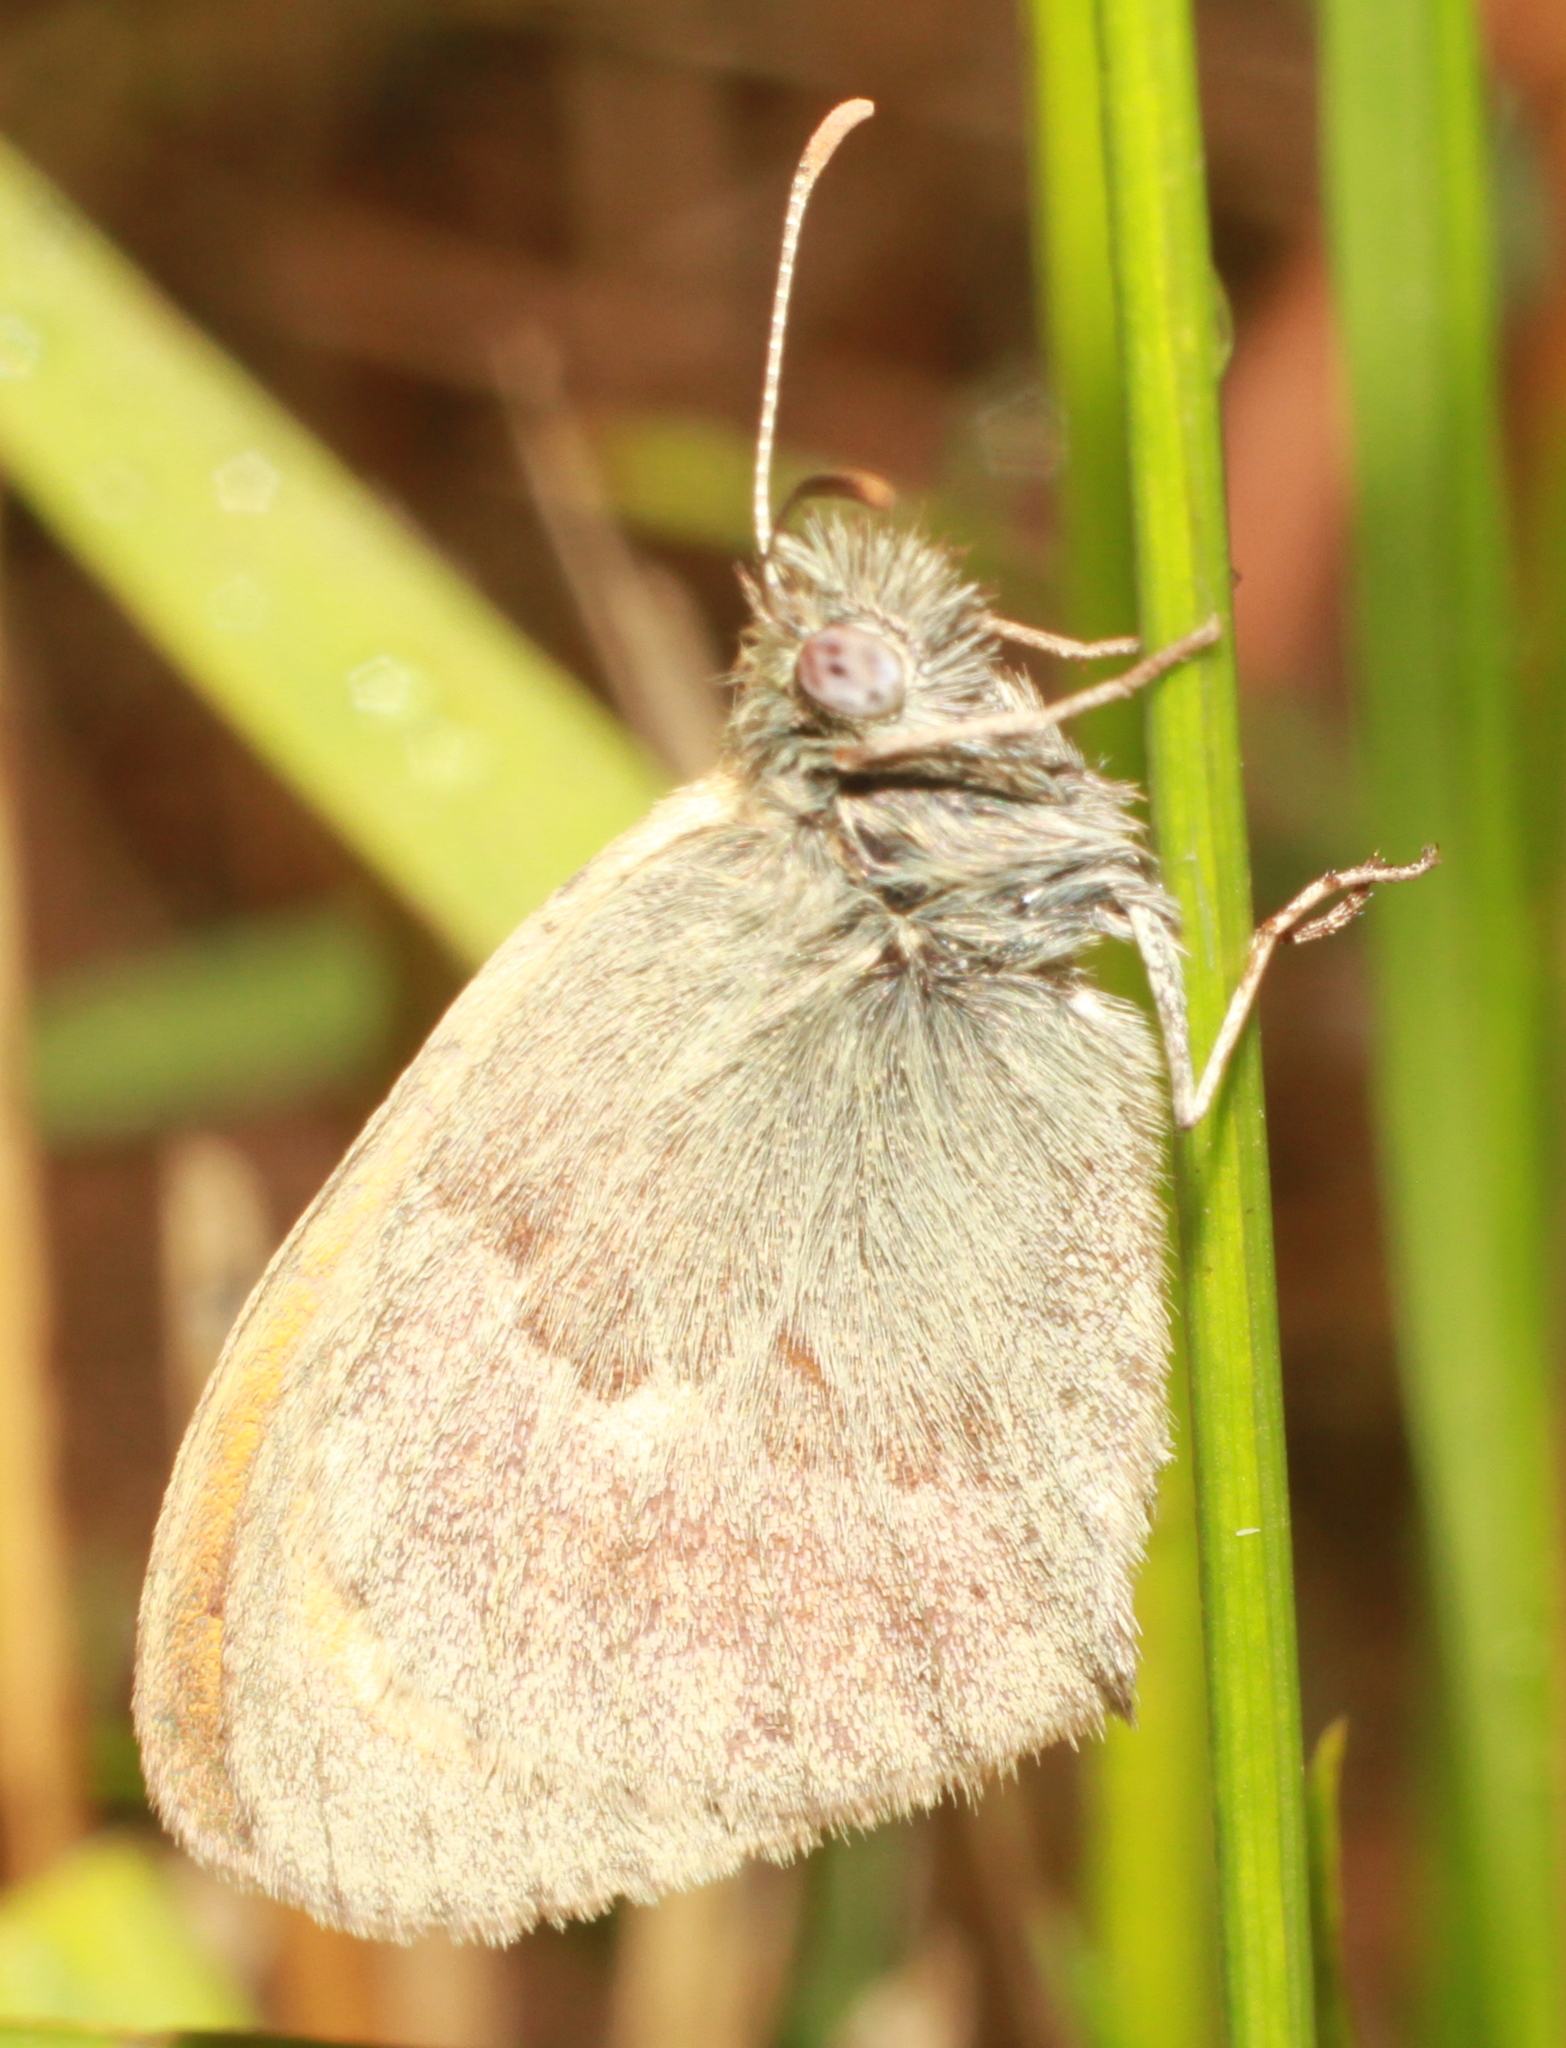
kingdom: Animalia
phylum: Arthropoda
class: Insecta
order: Lepidoptera
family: Nymphalidae
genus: Coenonympha
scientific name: Coenonympha pamphilus
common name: Small heath
